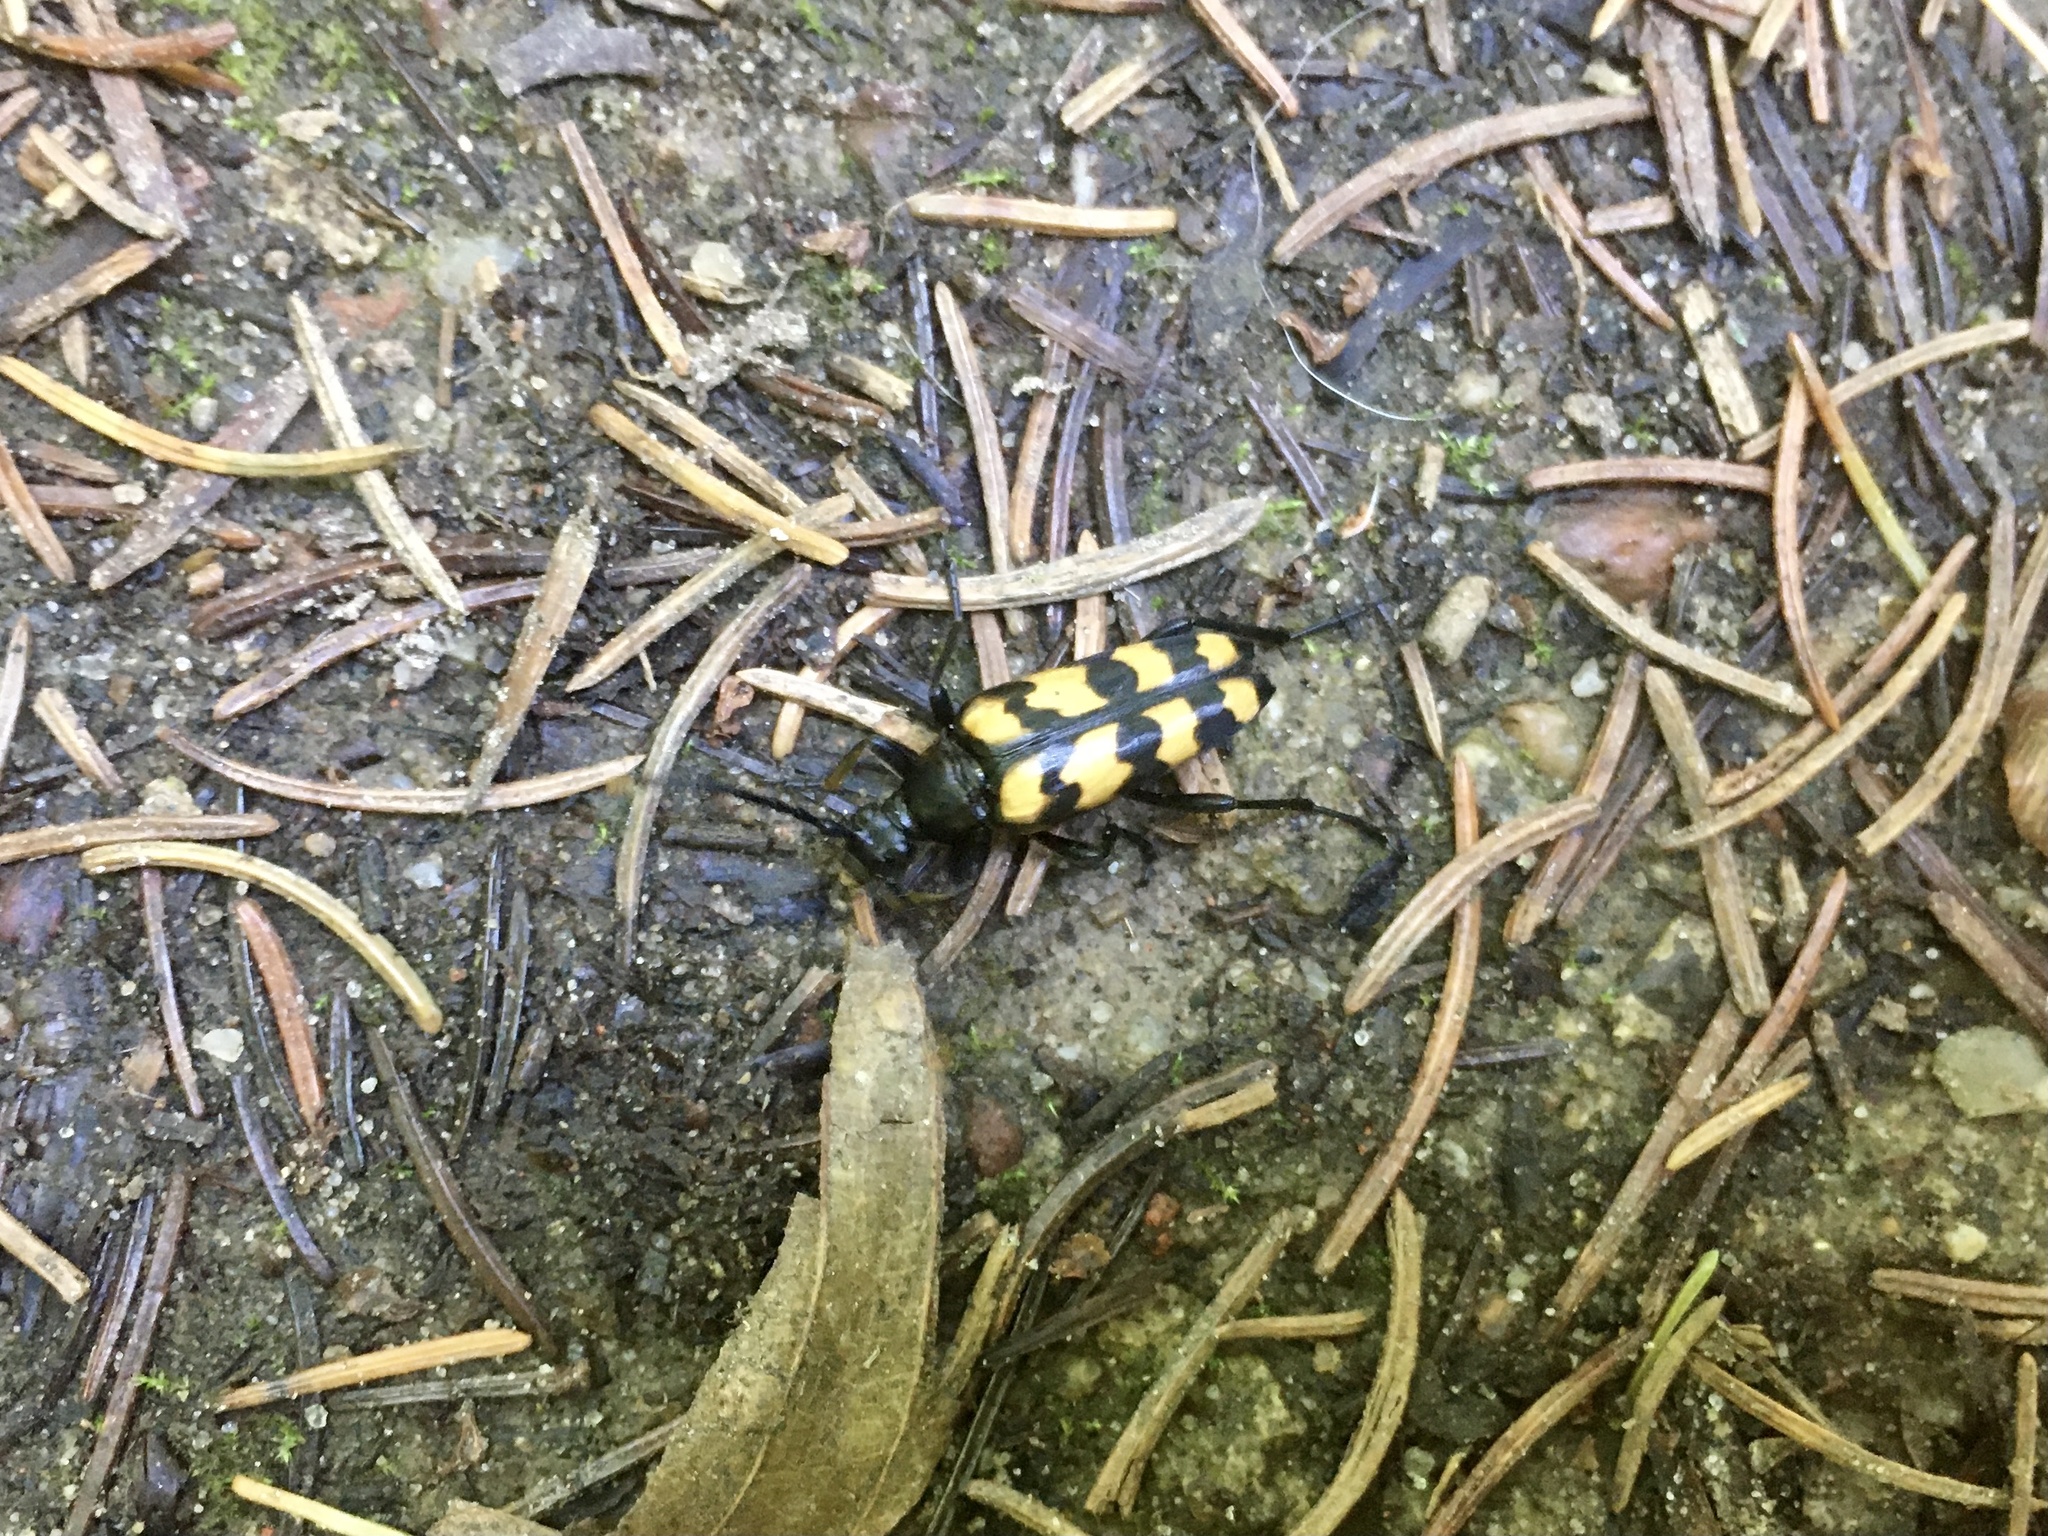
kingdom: Animalia
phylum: Arthropoda
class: Insecta
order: Coleoptera
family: Cerambycidae
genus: Leptura
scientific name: Leptura quadrifasciata
